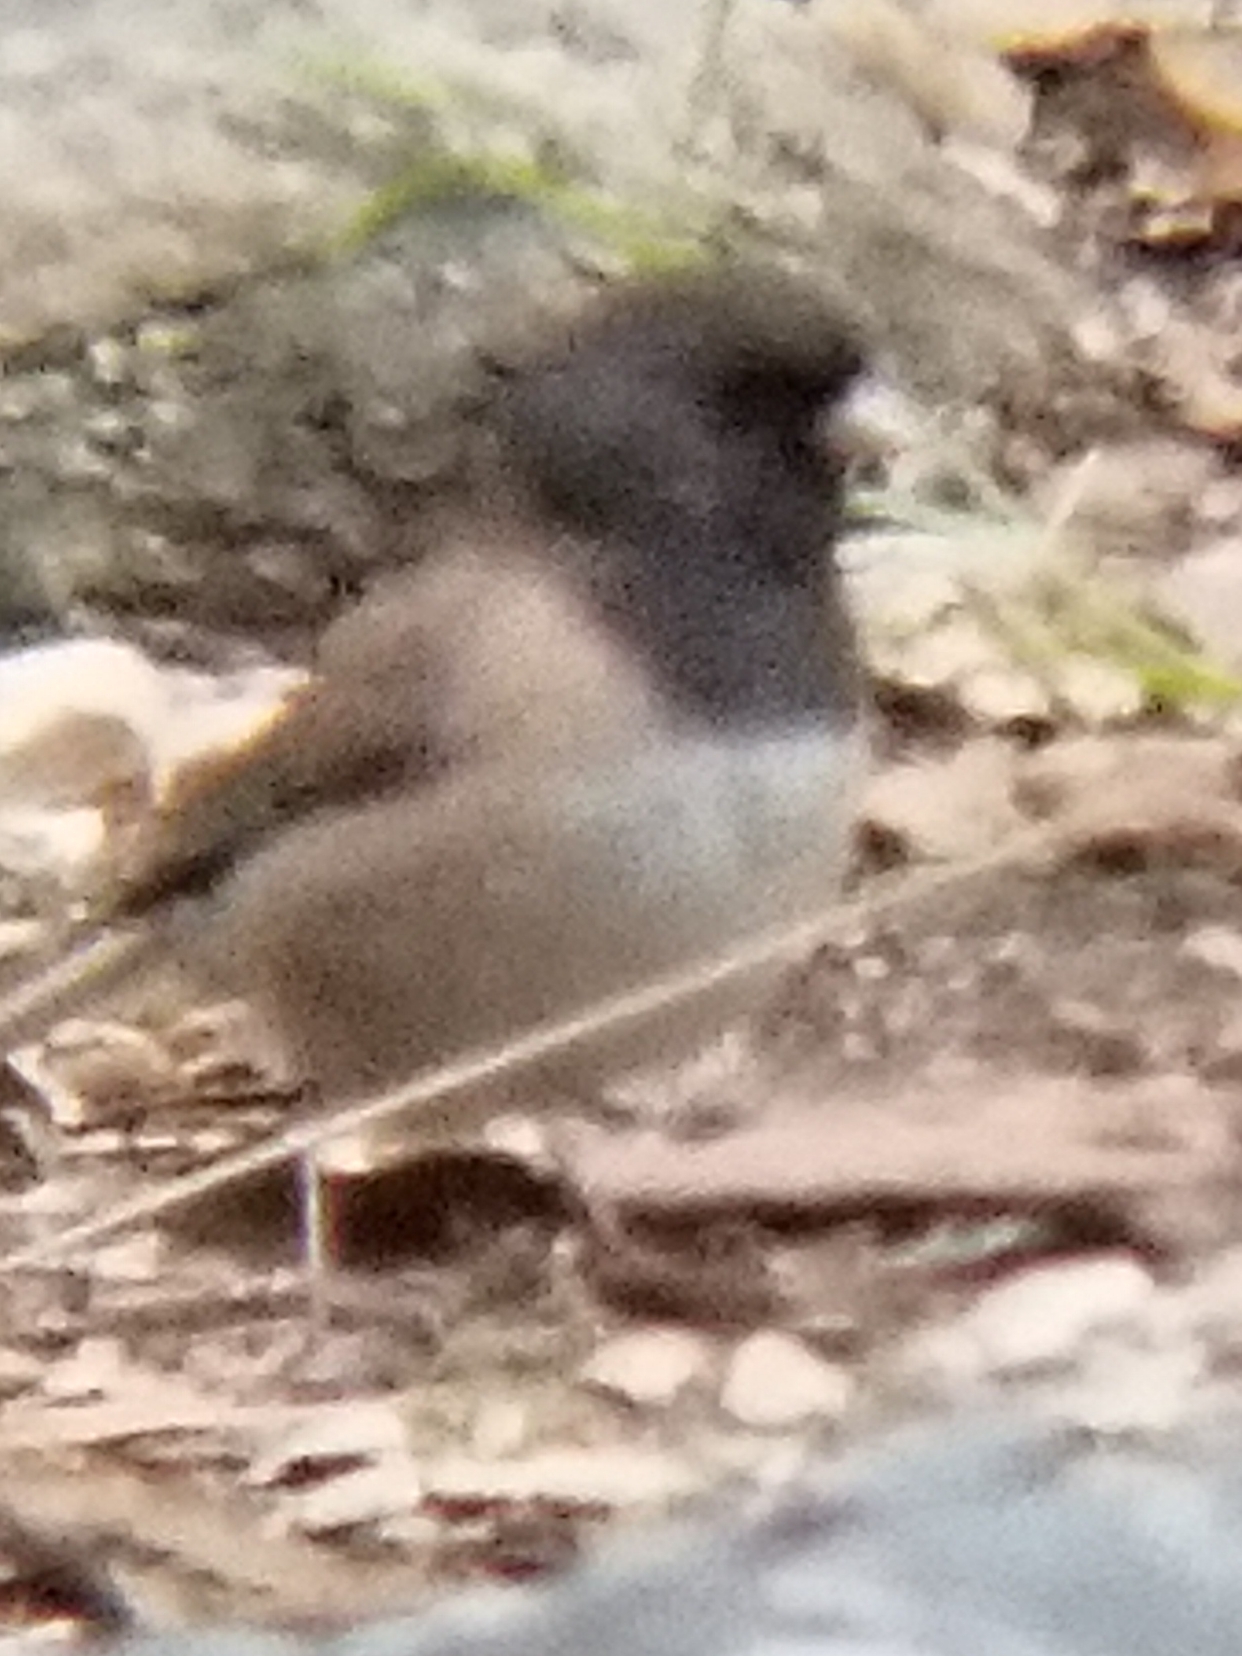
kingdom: Animalia
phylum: Chordata
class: Aves
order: Passeriformes
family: Passerellidae
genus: Junco
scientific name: Junco hyemalis
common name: Dark-eyed junco
